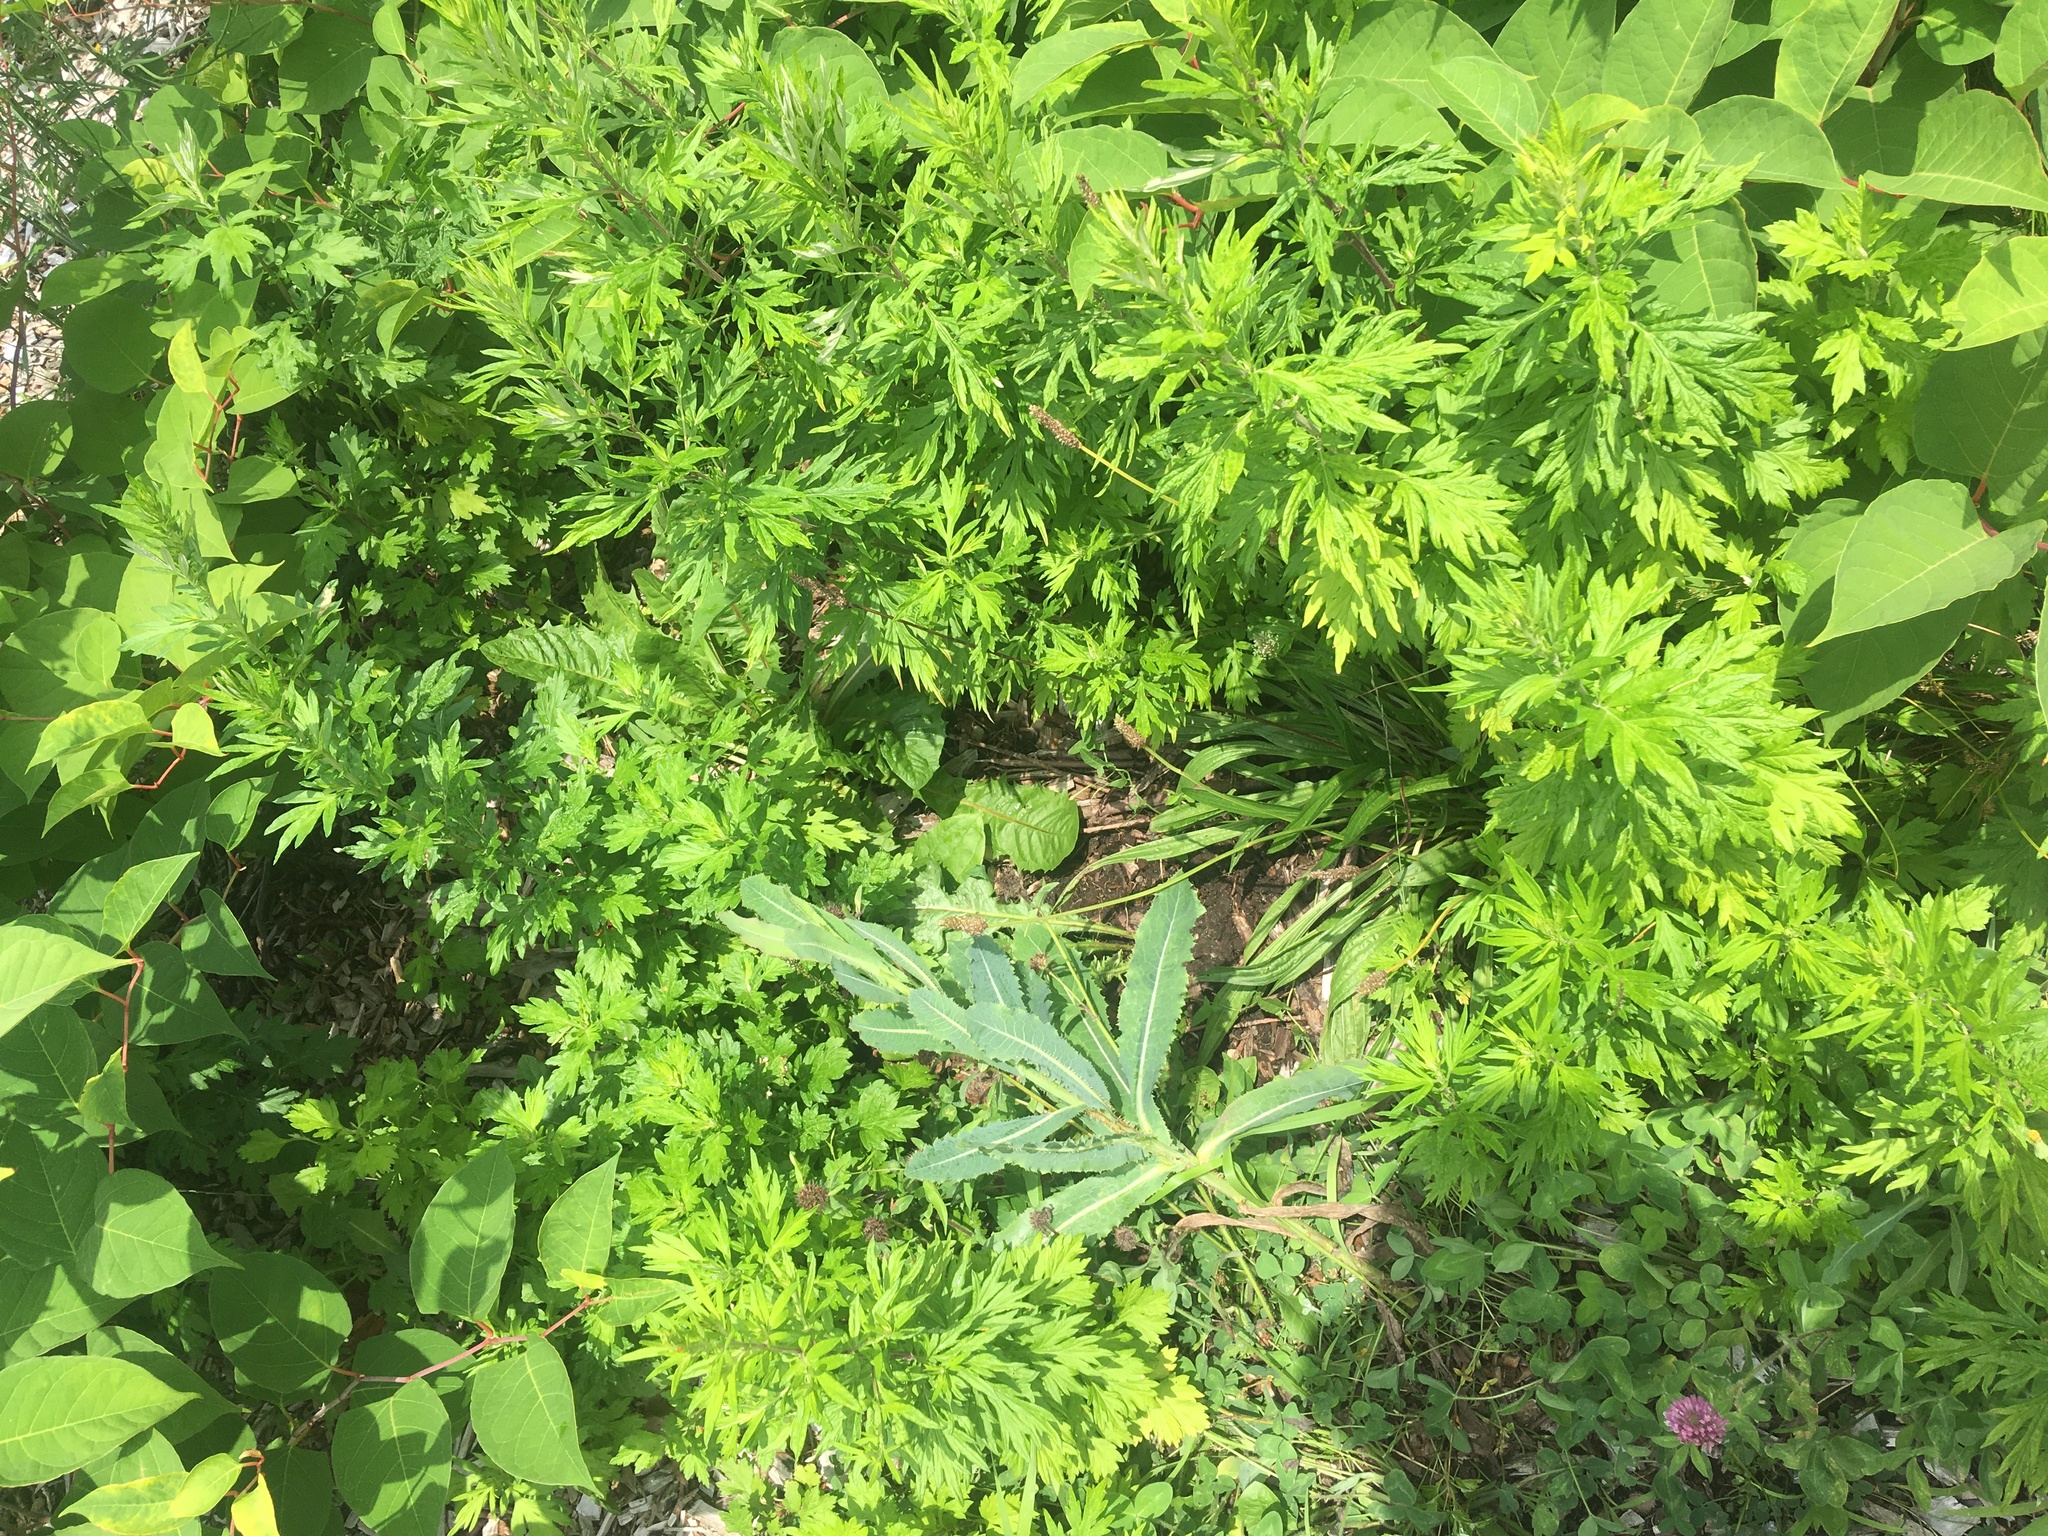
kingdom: Plantae
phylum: Tracheophyta
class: Magnoliopsida
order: Asterales
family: Asteraceae
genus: Lactuca
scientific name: Lactuca serriola
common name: Prickly lettuce
